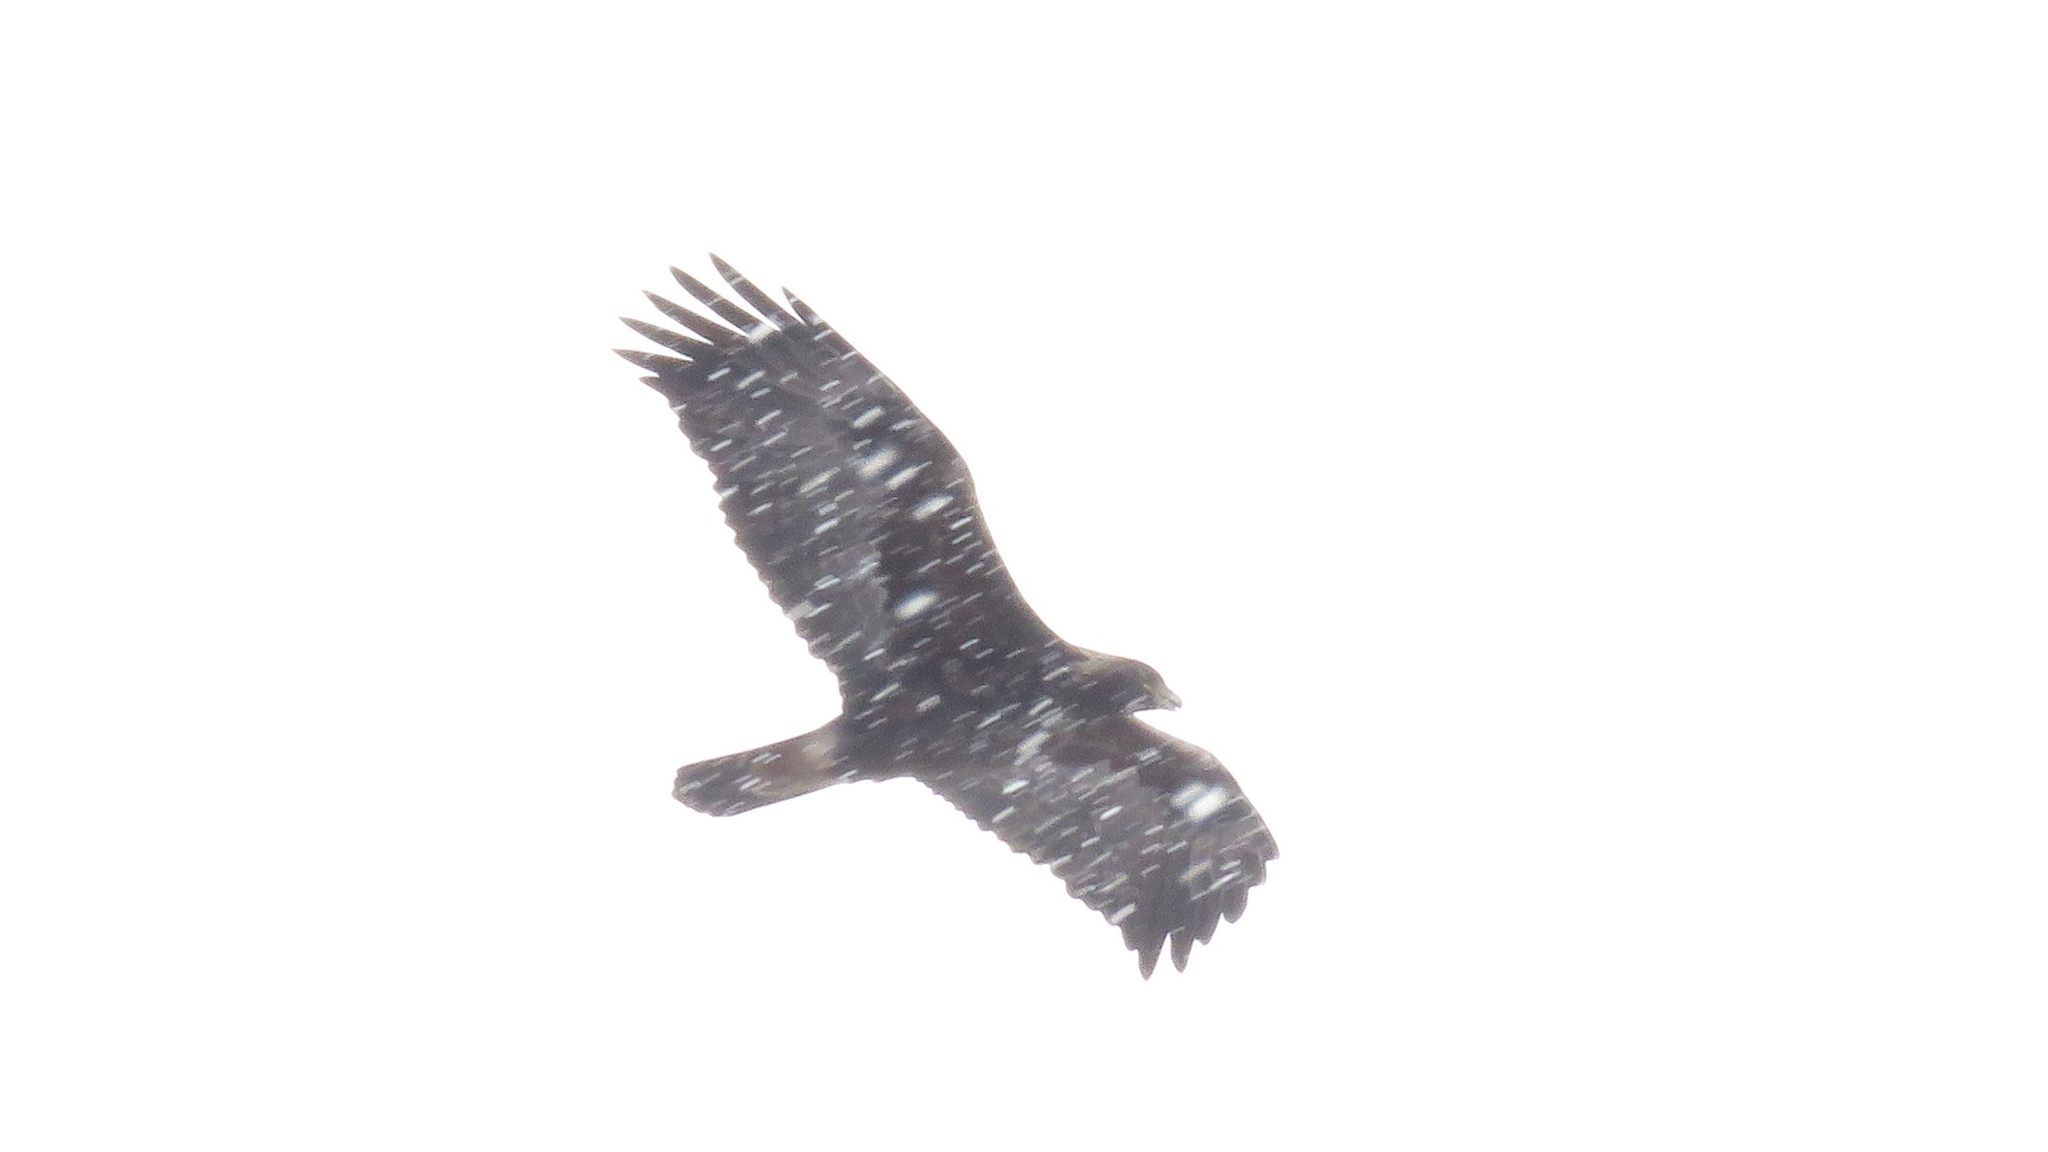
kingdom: Animalia
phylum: Chordata
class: Aves
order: Accipitriformes
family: Accipitridae
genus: Aquila
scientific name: Aquila chrysaetos
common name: Golden eagle
